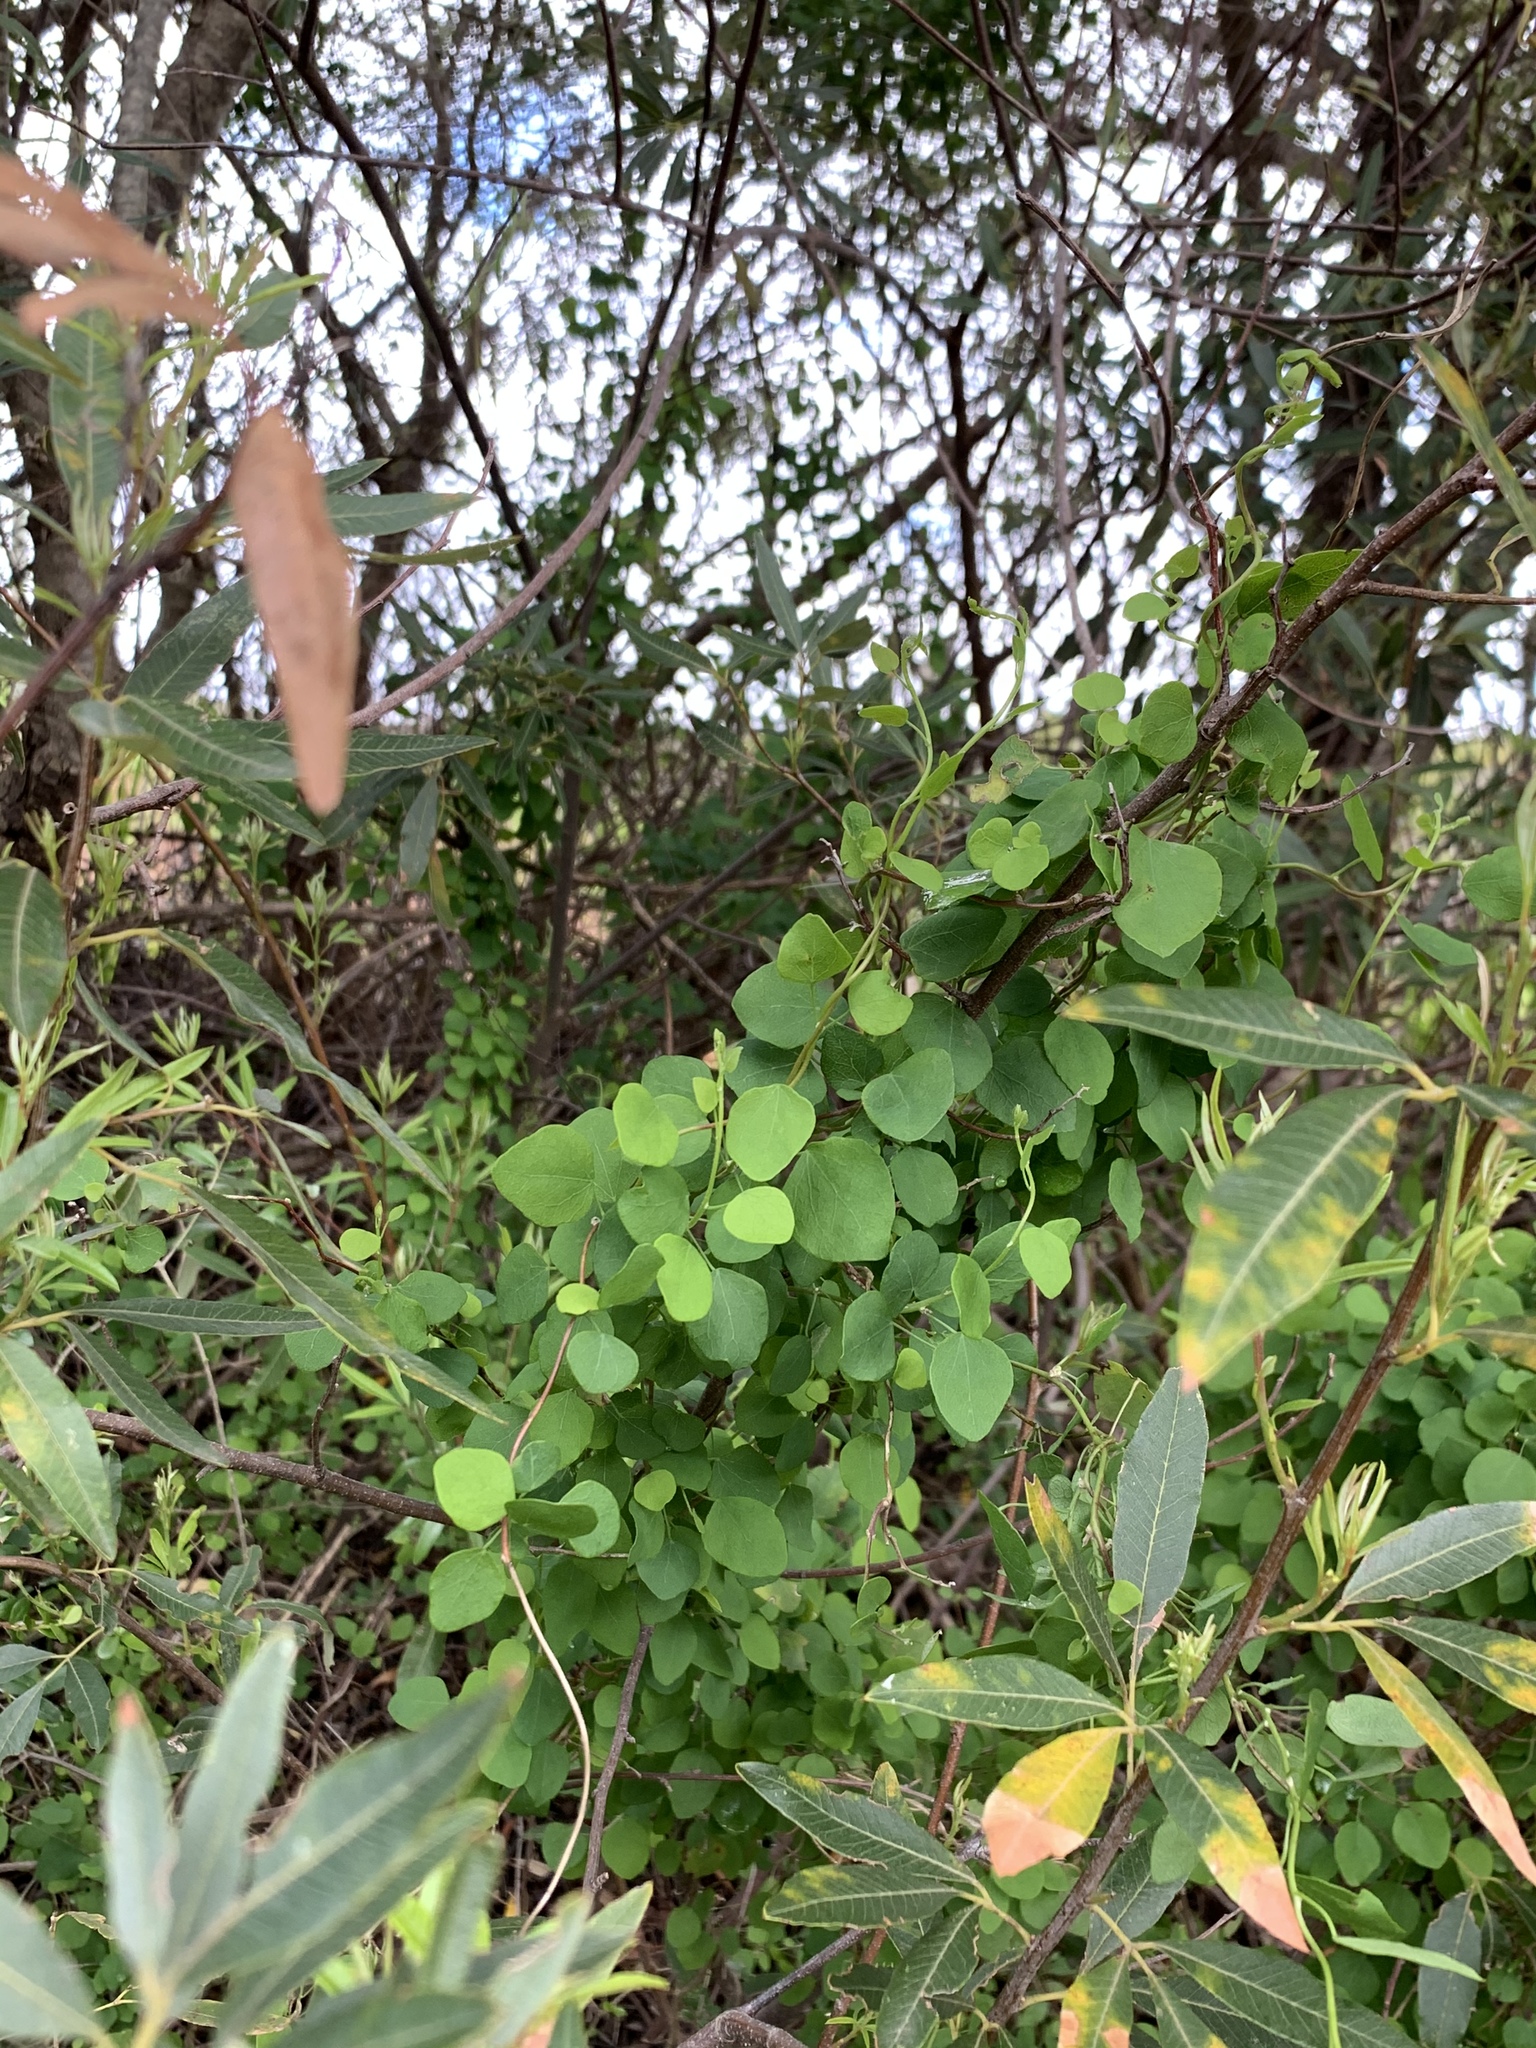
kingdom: Plantae
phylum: Tracheophyta
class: Magnoliopsida
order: Ranunculales
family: Menispermaceae
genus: Cissampelos
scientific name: Cissampelos capensis
